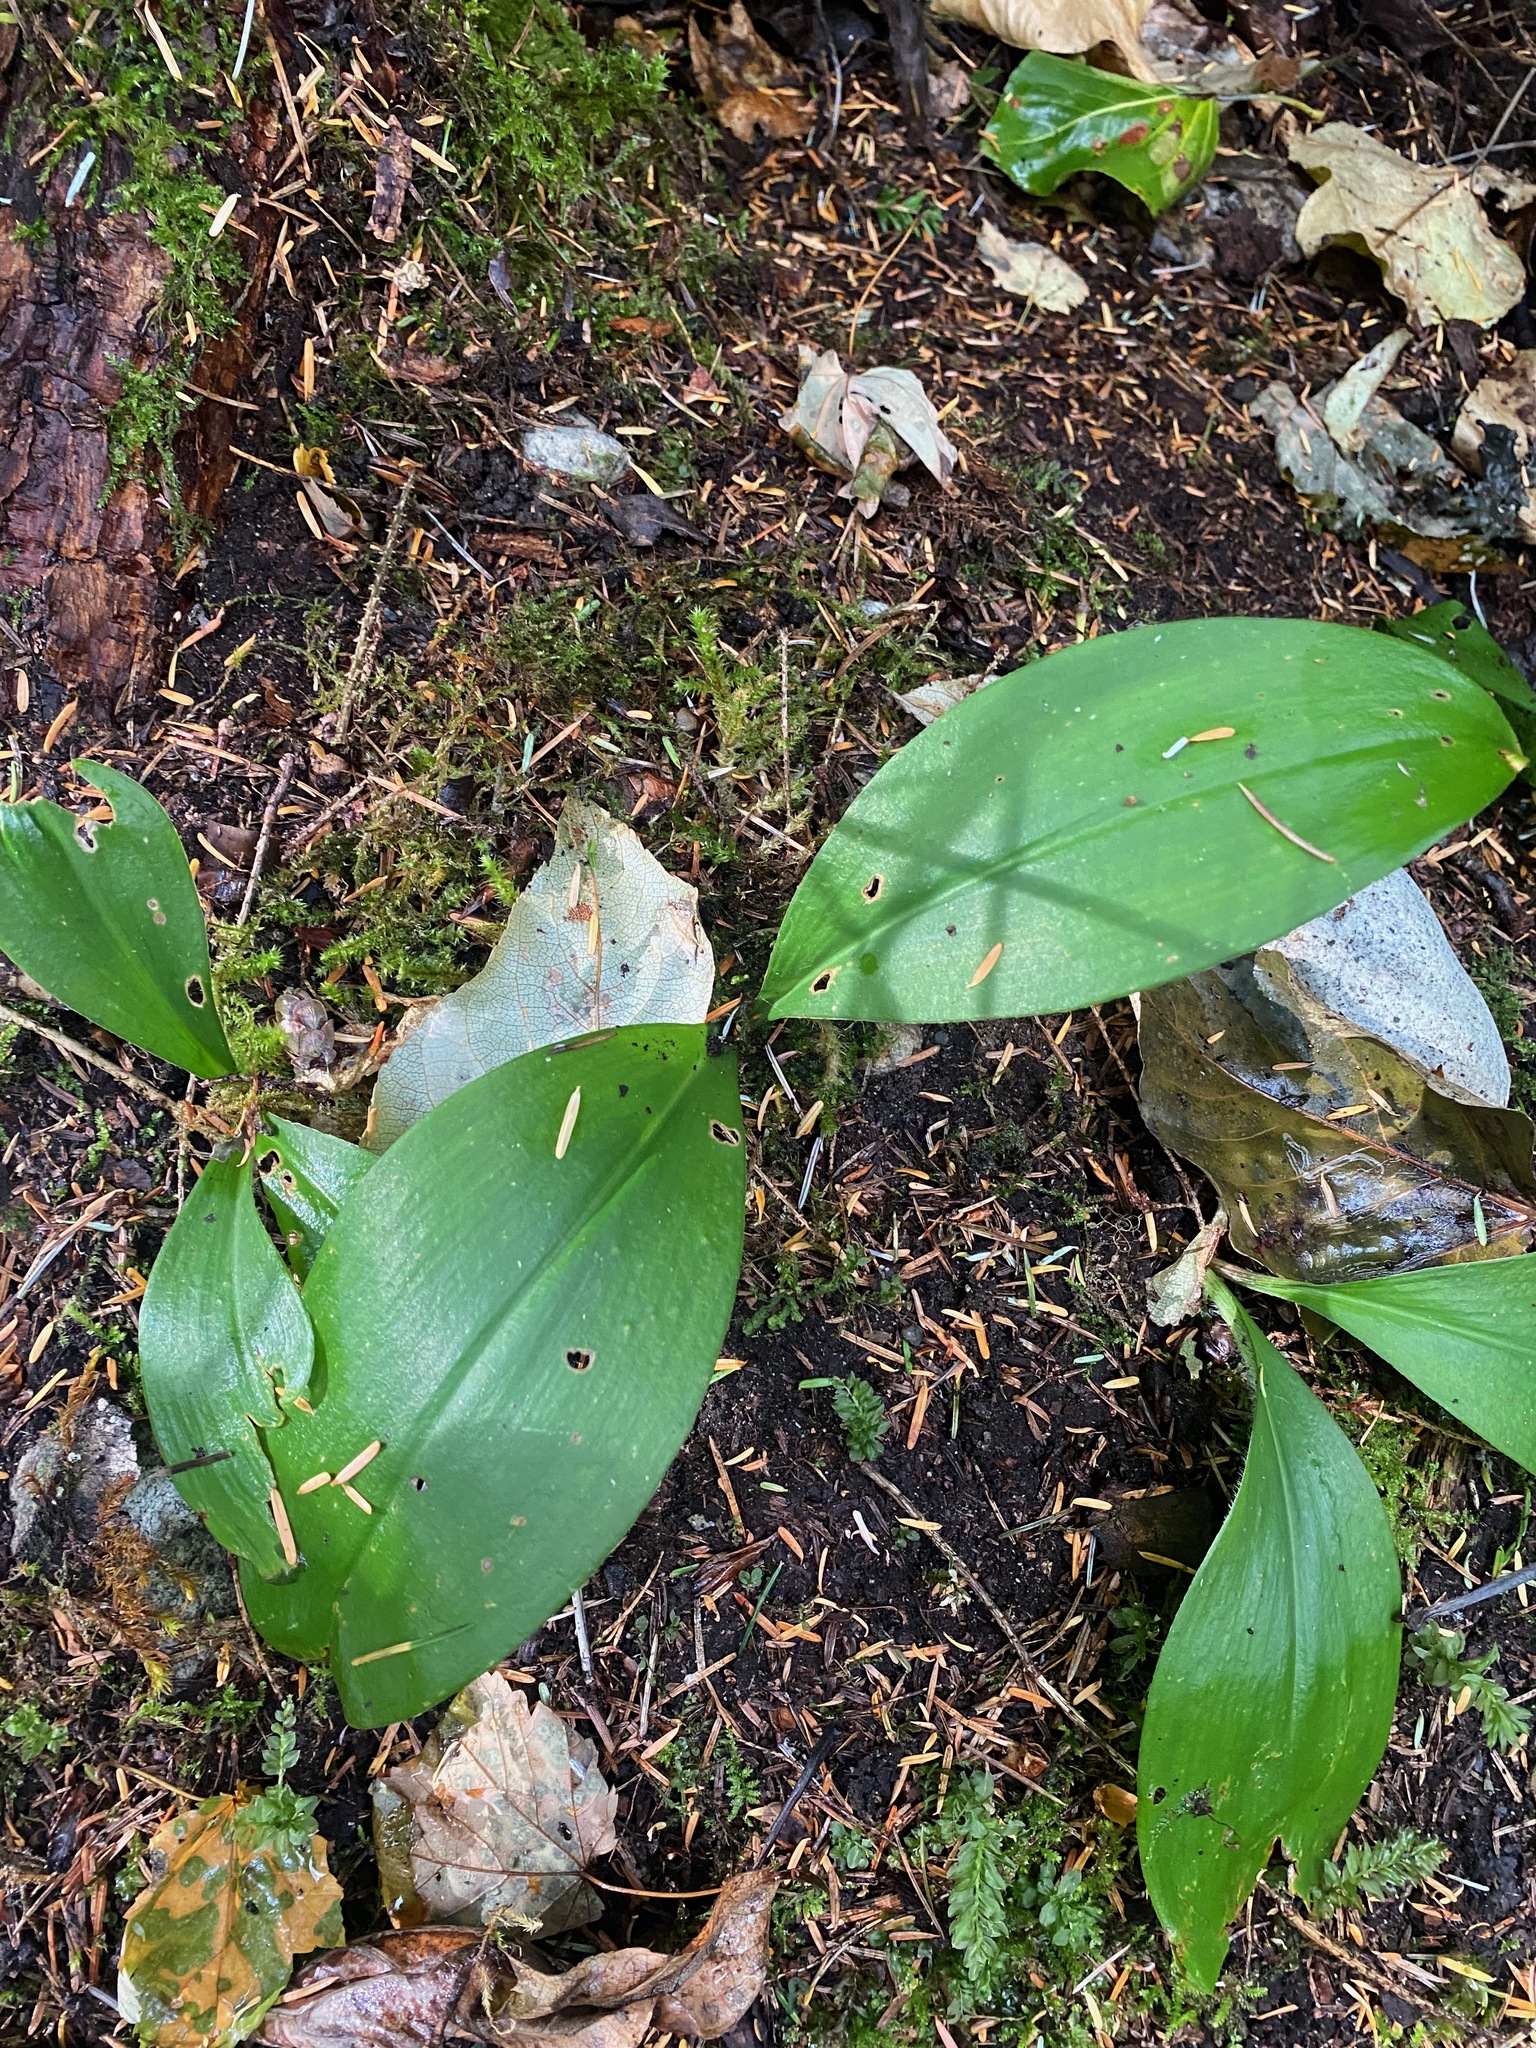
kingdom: Plantae
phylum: Tracheophyta
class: Liliopsida
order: Liliales
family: Liliaceae
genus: Clintonia
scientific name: Clintonia uniflora
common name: Queen's cup
